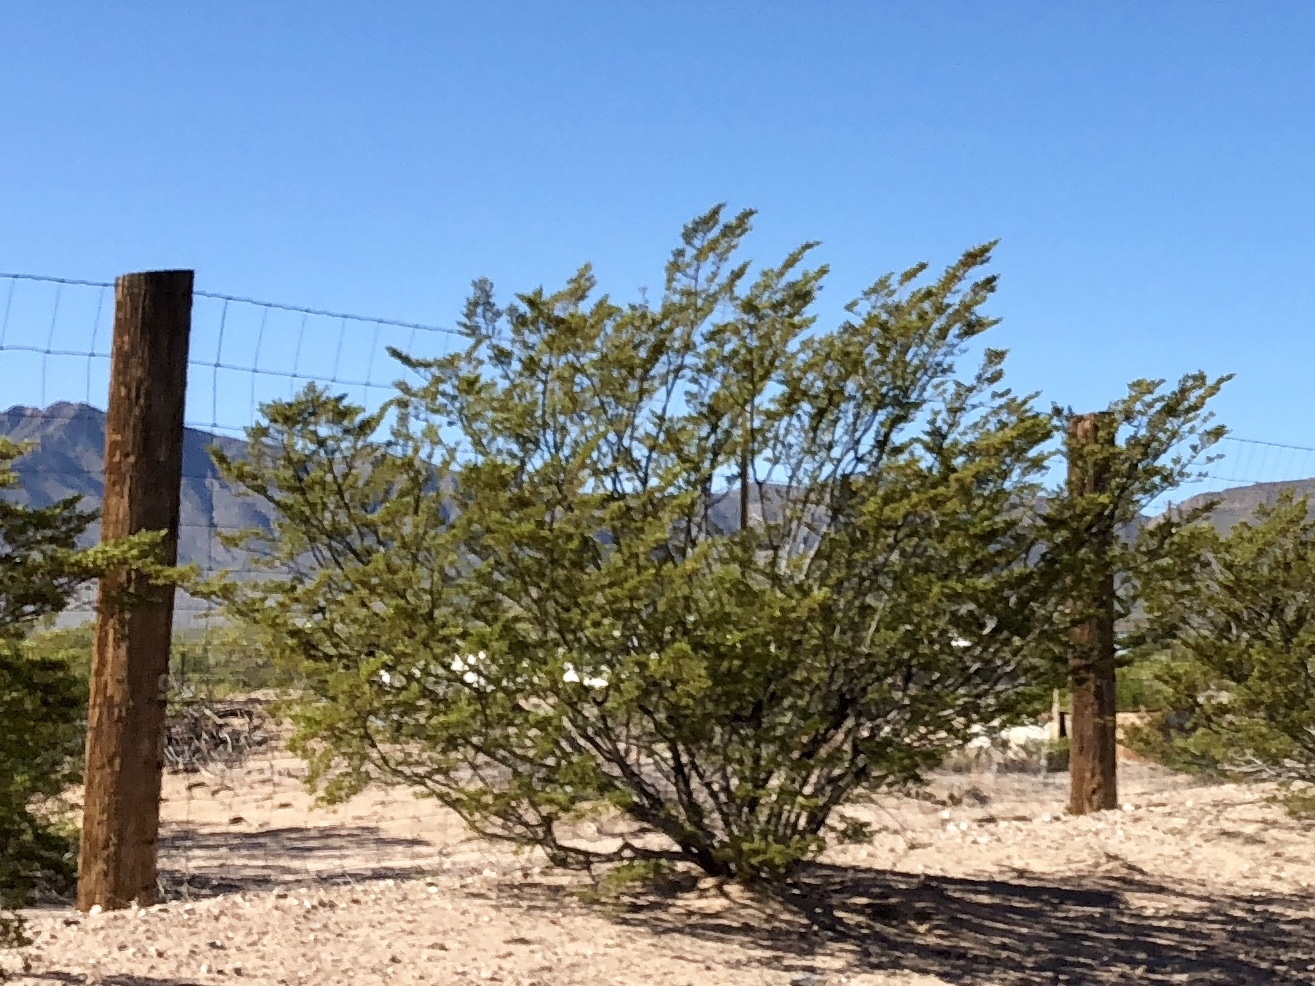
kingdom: Plantae
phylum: Tracheophyta
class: Magnoliopsida
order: Zygophyllales
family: Zygophyllaceae
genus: Larrea
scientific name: Larrea tridentata
